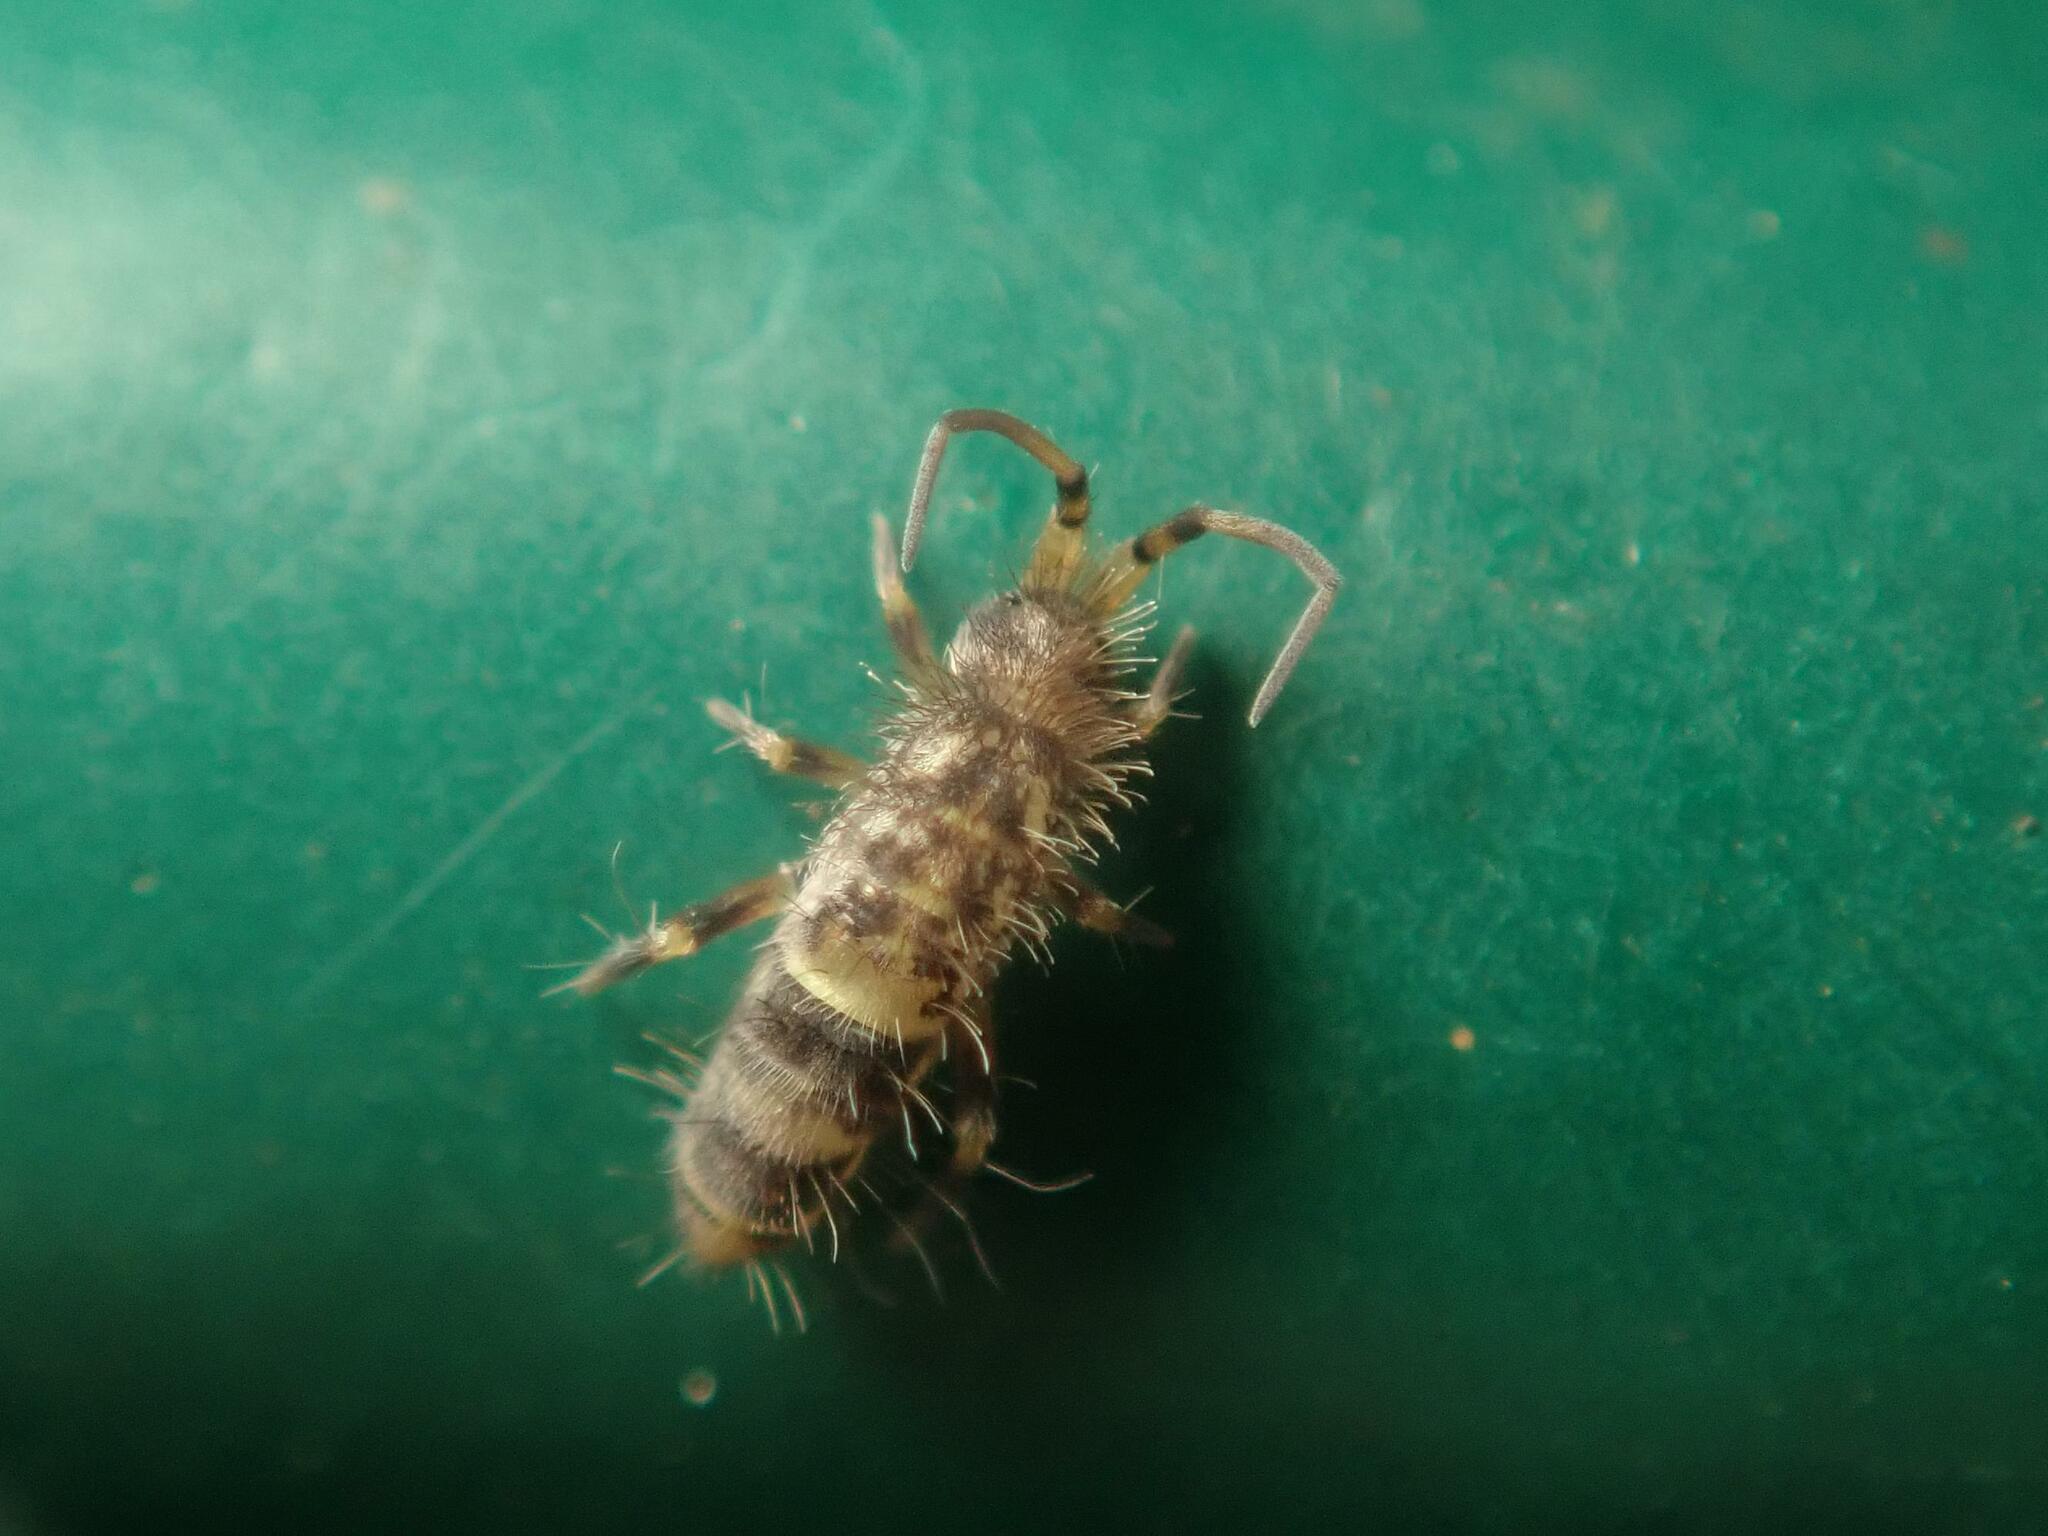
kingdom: Animalia
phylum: Arthropoda
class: Collembola
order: Entomobryomorpha
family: Orchesellidae
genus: Orchesella
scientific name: Orchesella cincta
